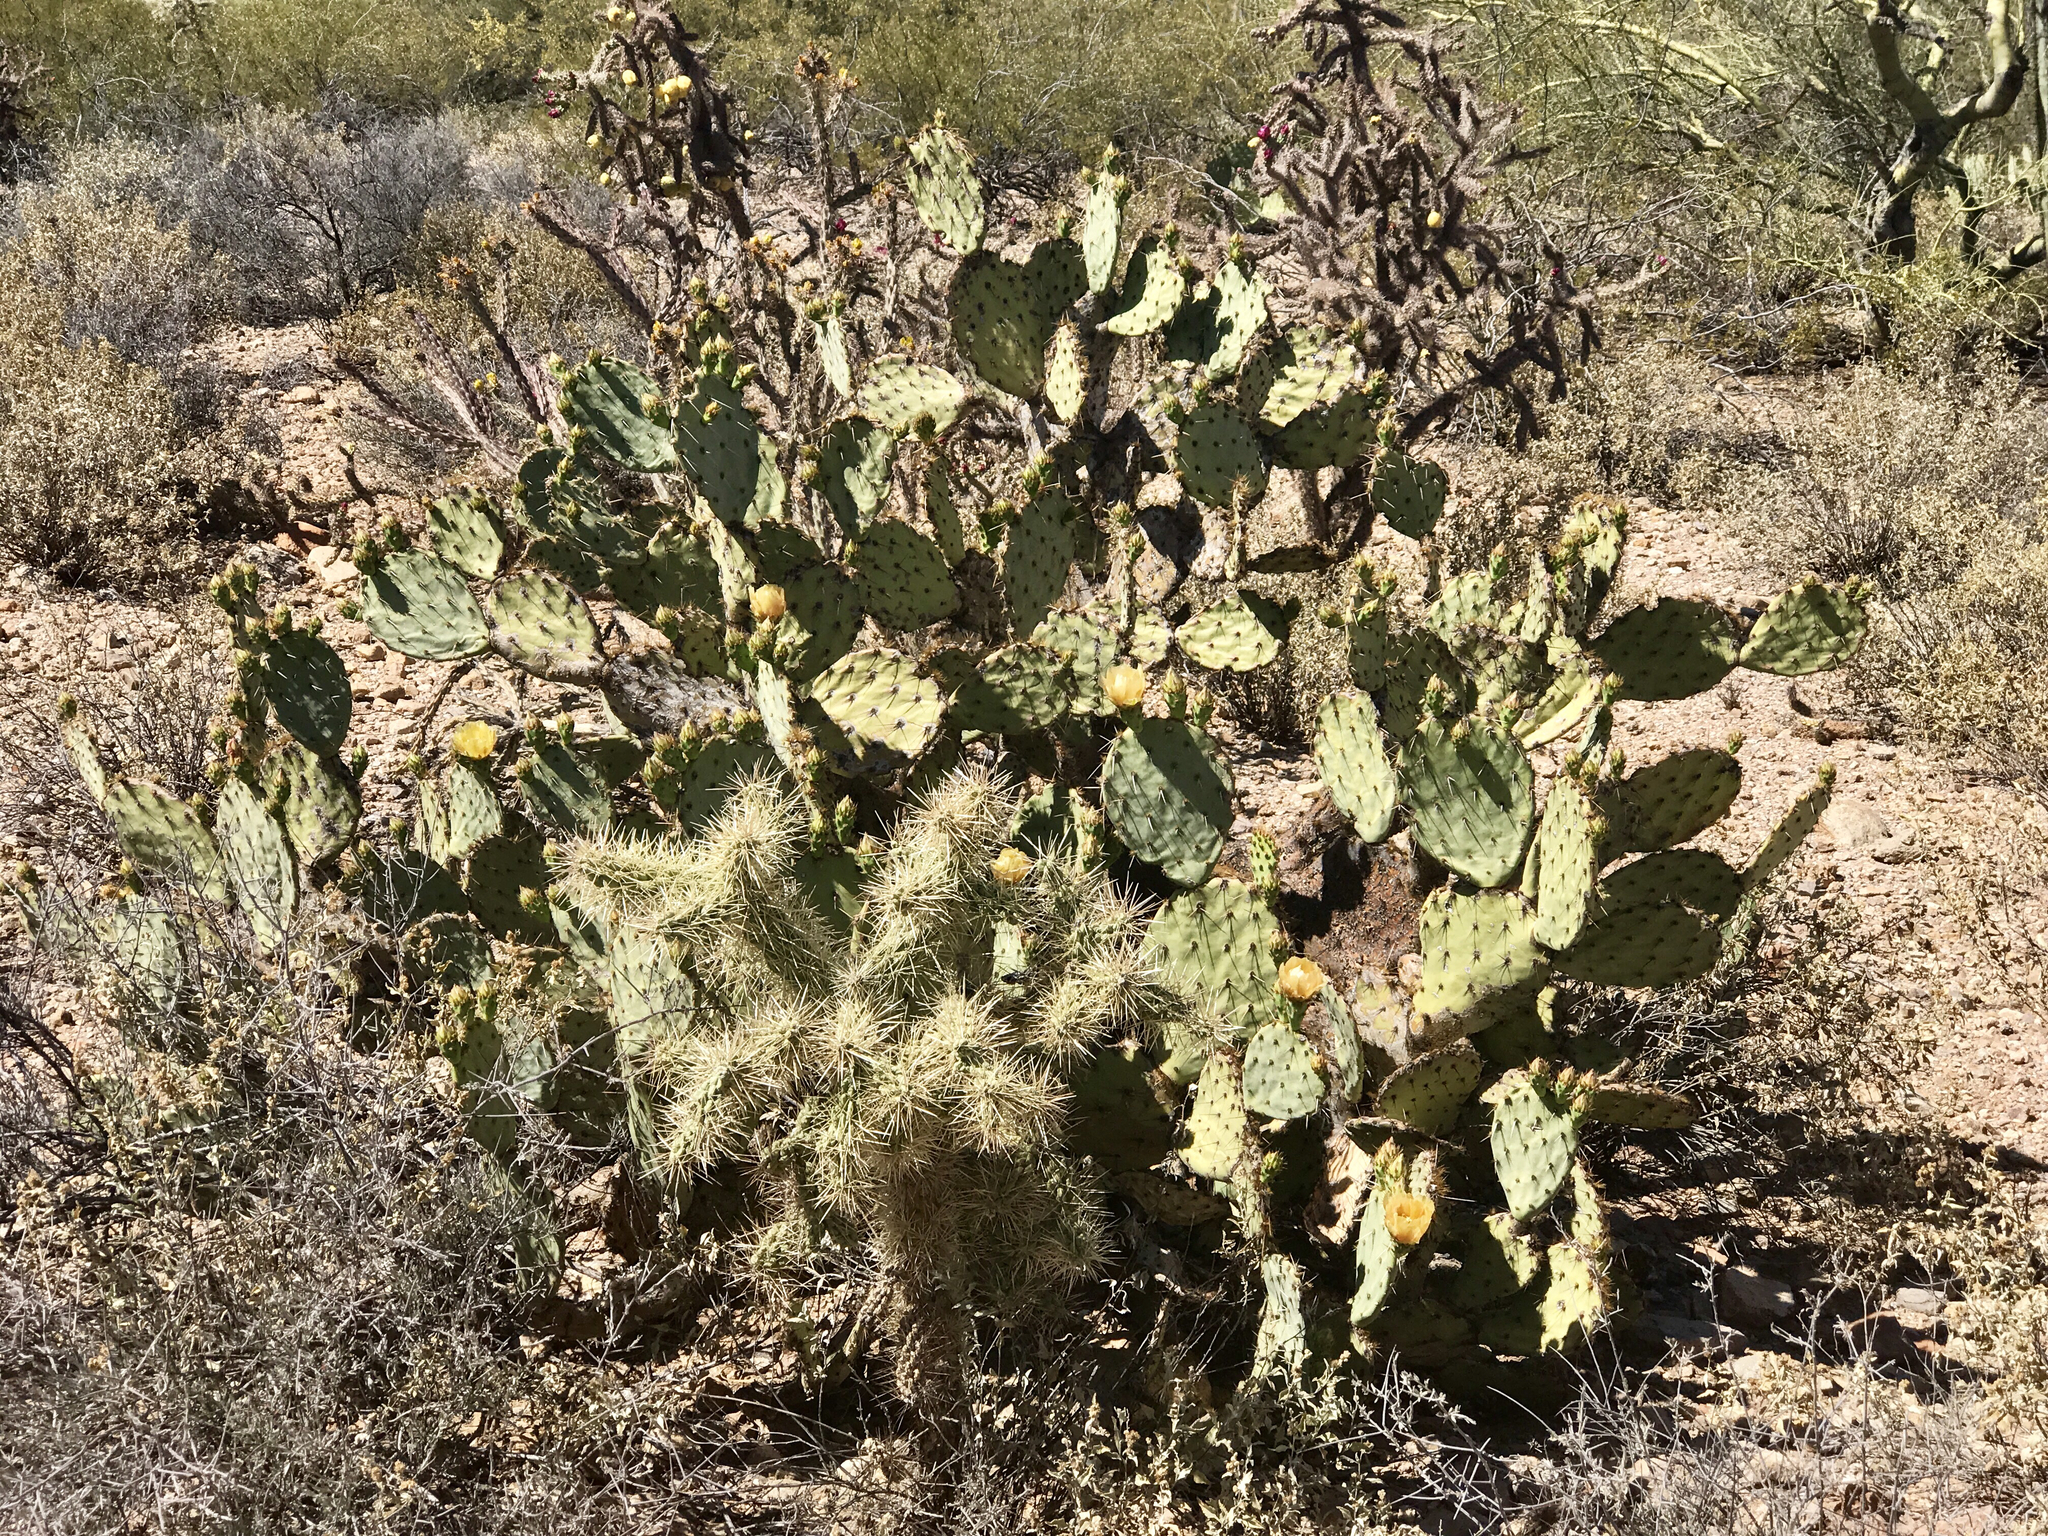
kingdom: Plantae
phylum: Tracheophyta
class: Magnoliopsida
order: Caryophyllales
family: Cactaceae
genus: Opuntia
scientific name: Opuntia engelmannii
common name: Cactus-apple
